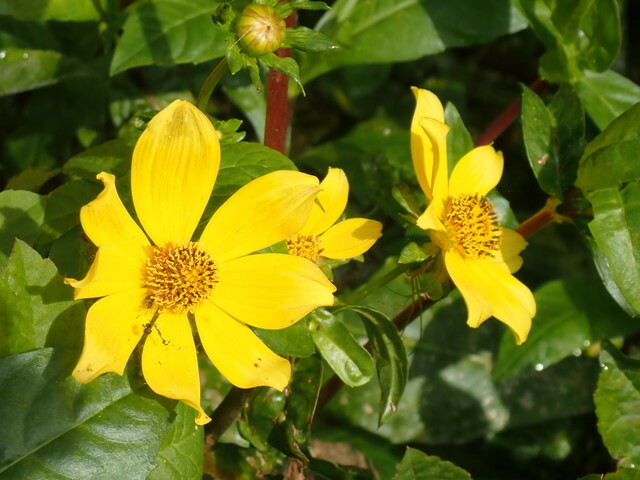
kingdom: Plantae
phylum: Tracheophyta
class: Magnoliopsida
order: Asterales
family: Asteraceae
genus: Bidens
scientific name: Bidens laevis
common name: Larger bur-marigold
